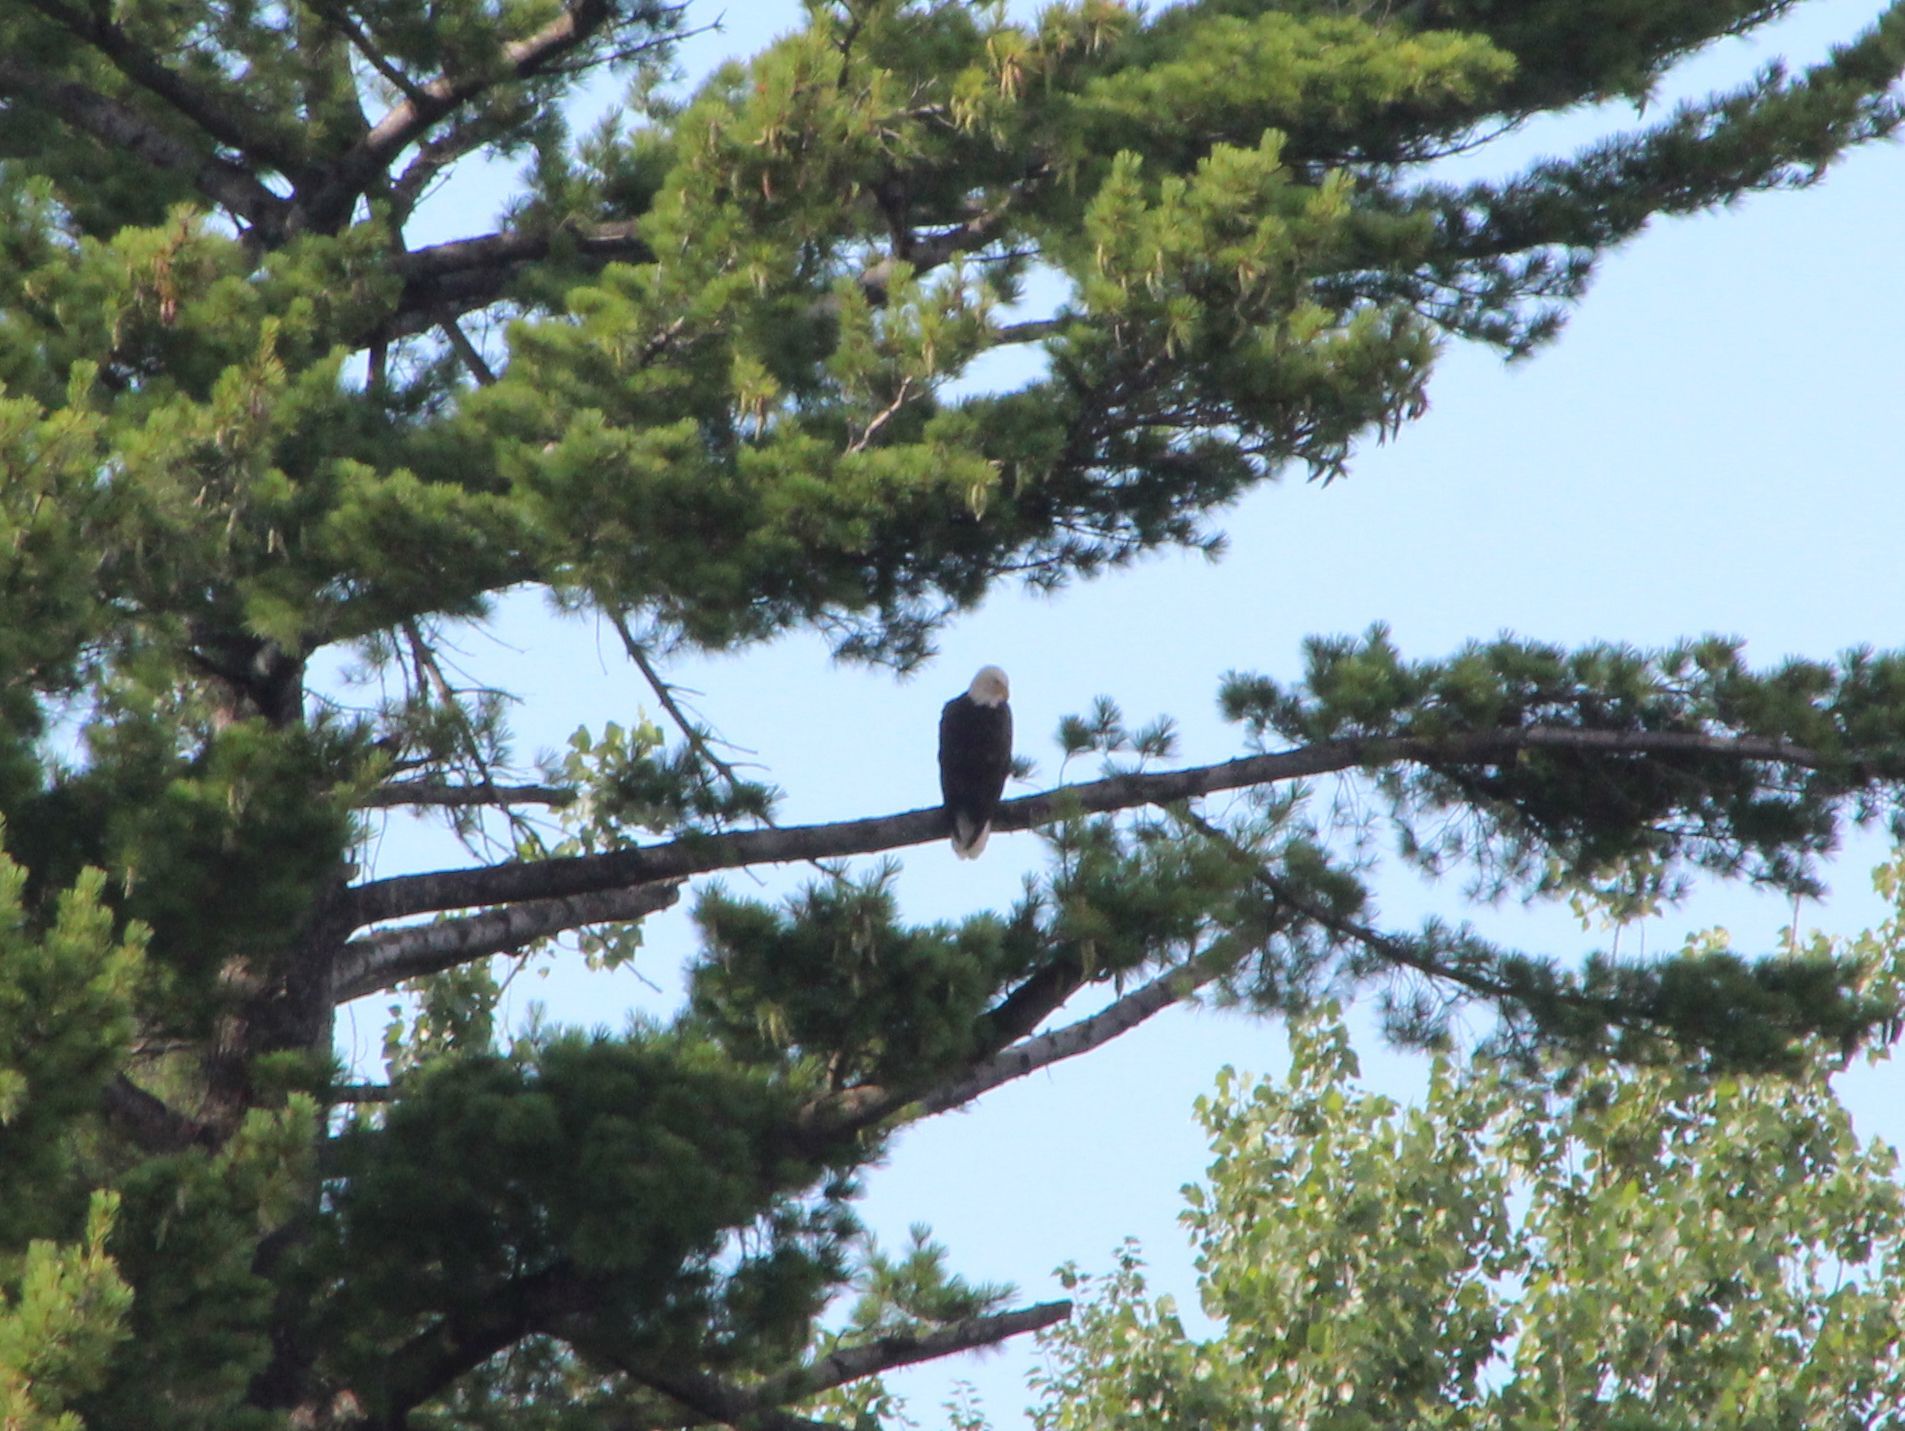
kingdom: Animalia
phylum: Chordata
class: Aves
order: Accipitriformes
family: Accipitridae
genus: Haliaeetus
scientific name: Haliaeetus leucocephalus
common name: Bald eagle
